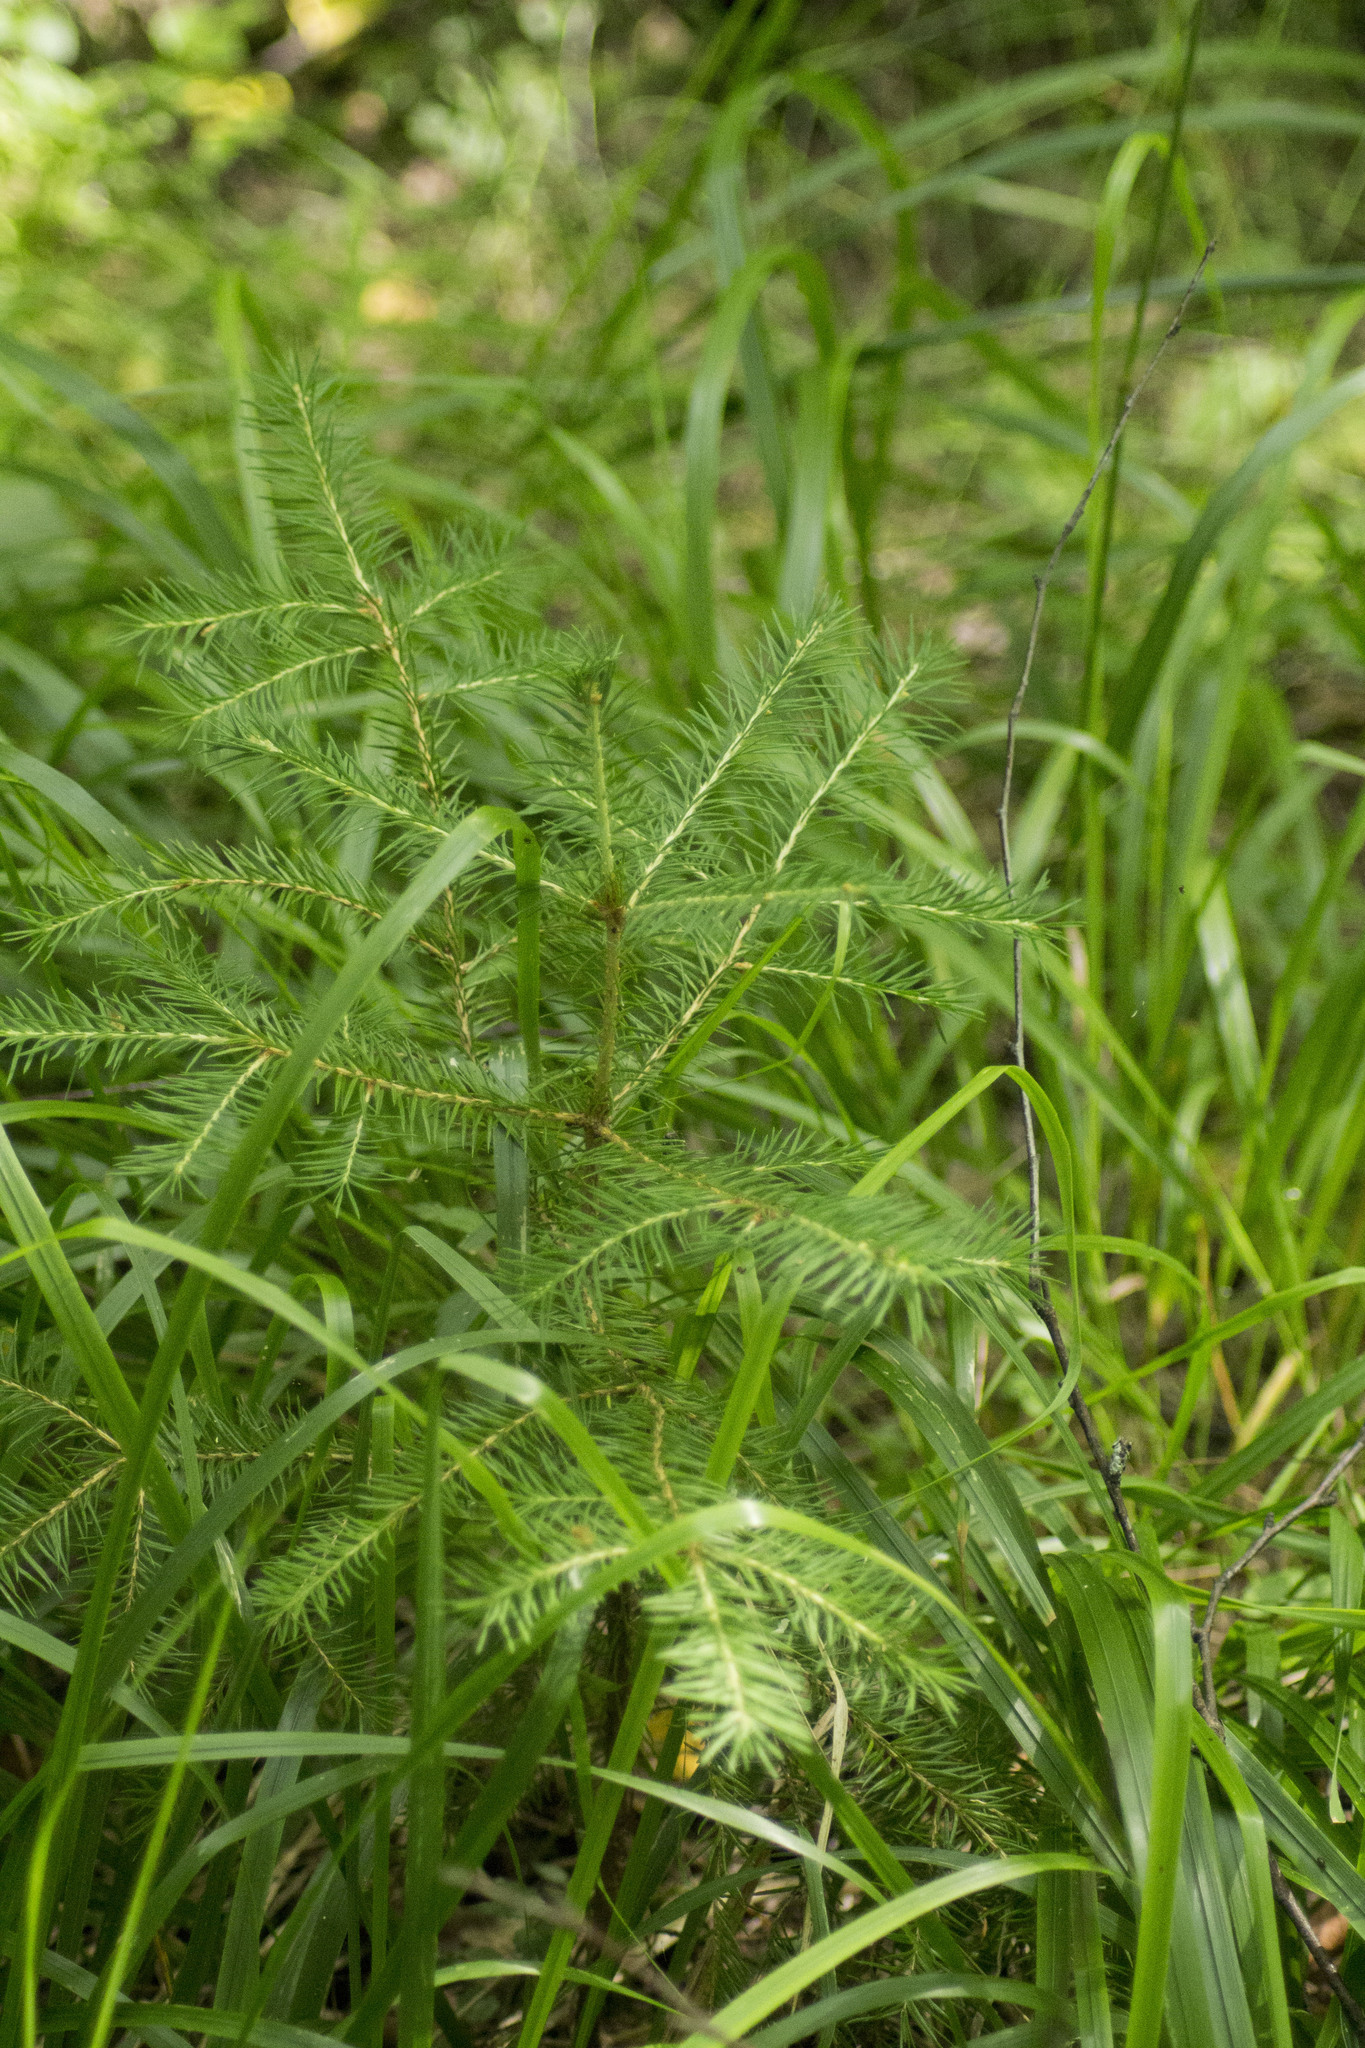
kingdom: Plantae
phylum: Tracheophyta
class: Pinopsida
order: Pinales
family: Pinaceae
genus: Picea
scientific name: Picea
